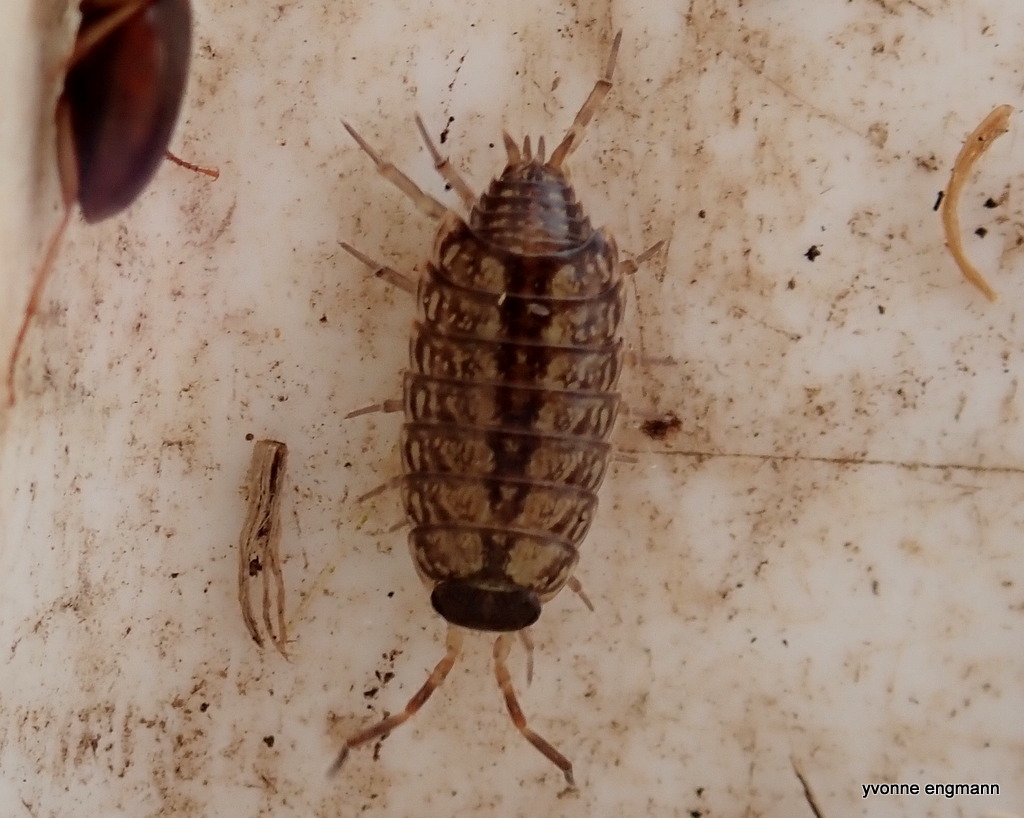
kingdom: Animalia
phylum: Arthropoda
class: Malacostraca
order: Isopoda
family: Philosciidae
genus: Philoscia
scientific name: Philoscia muscorum
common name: Common striped woodlouse
